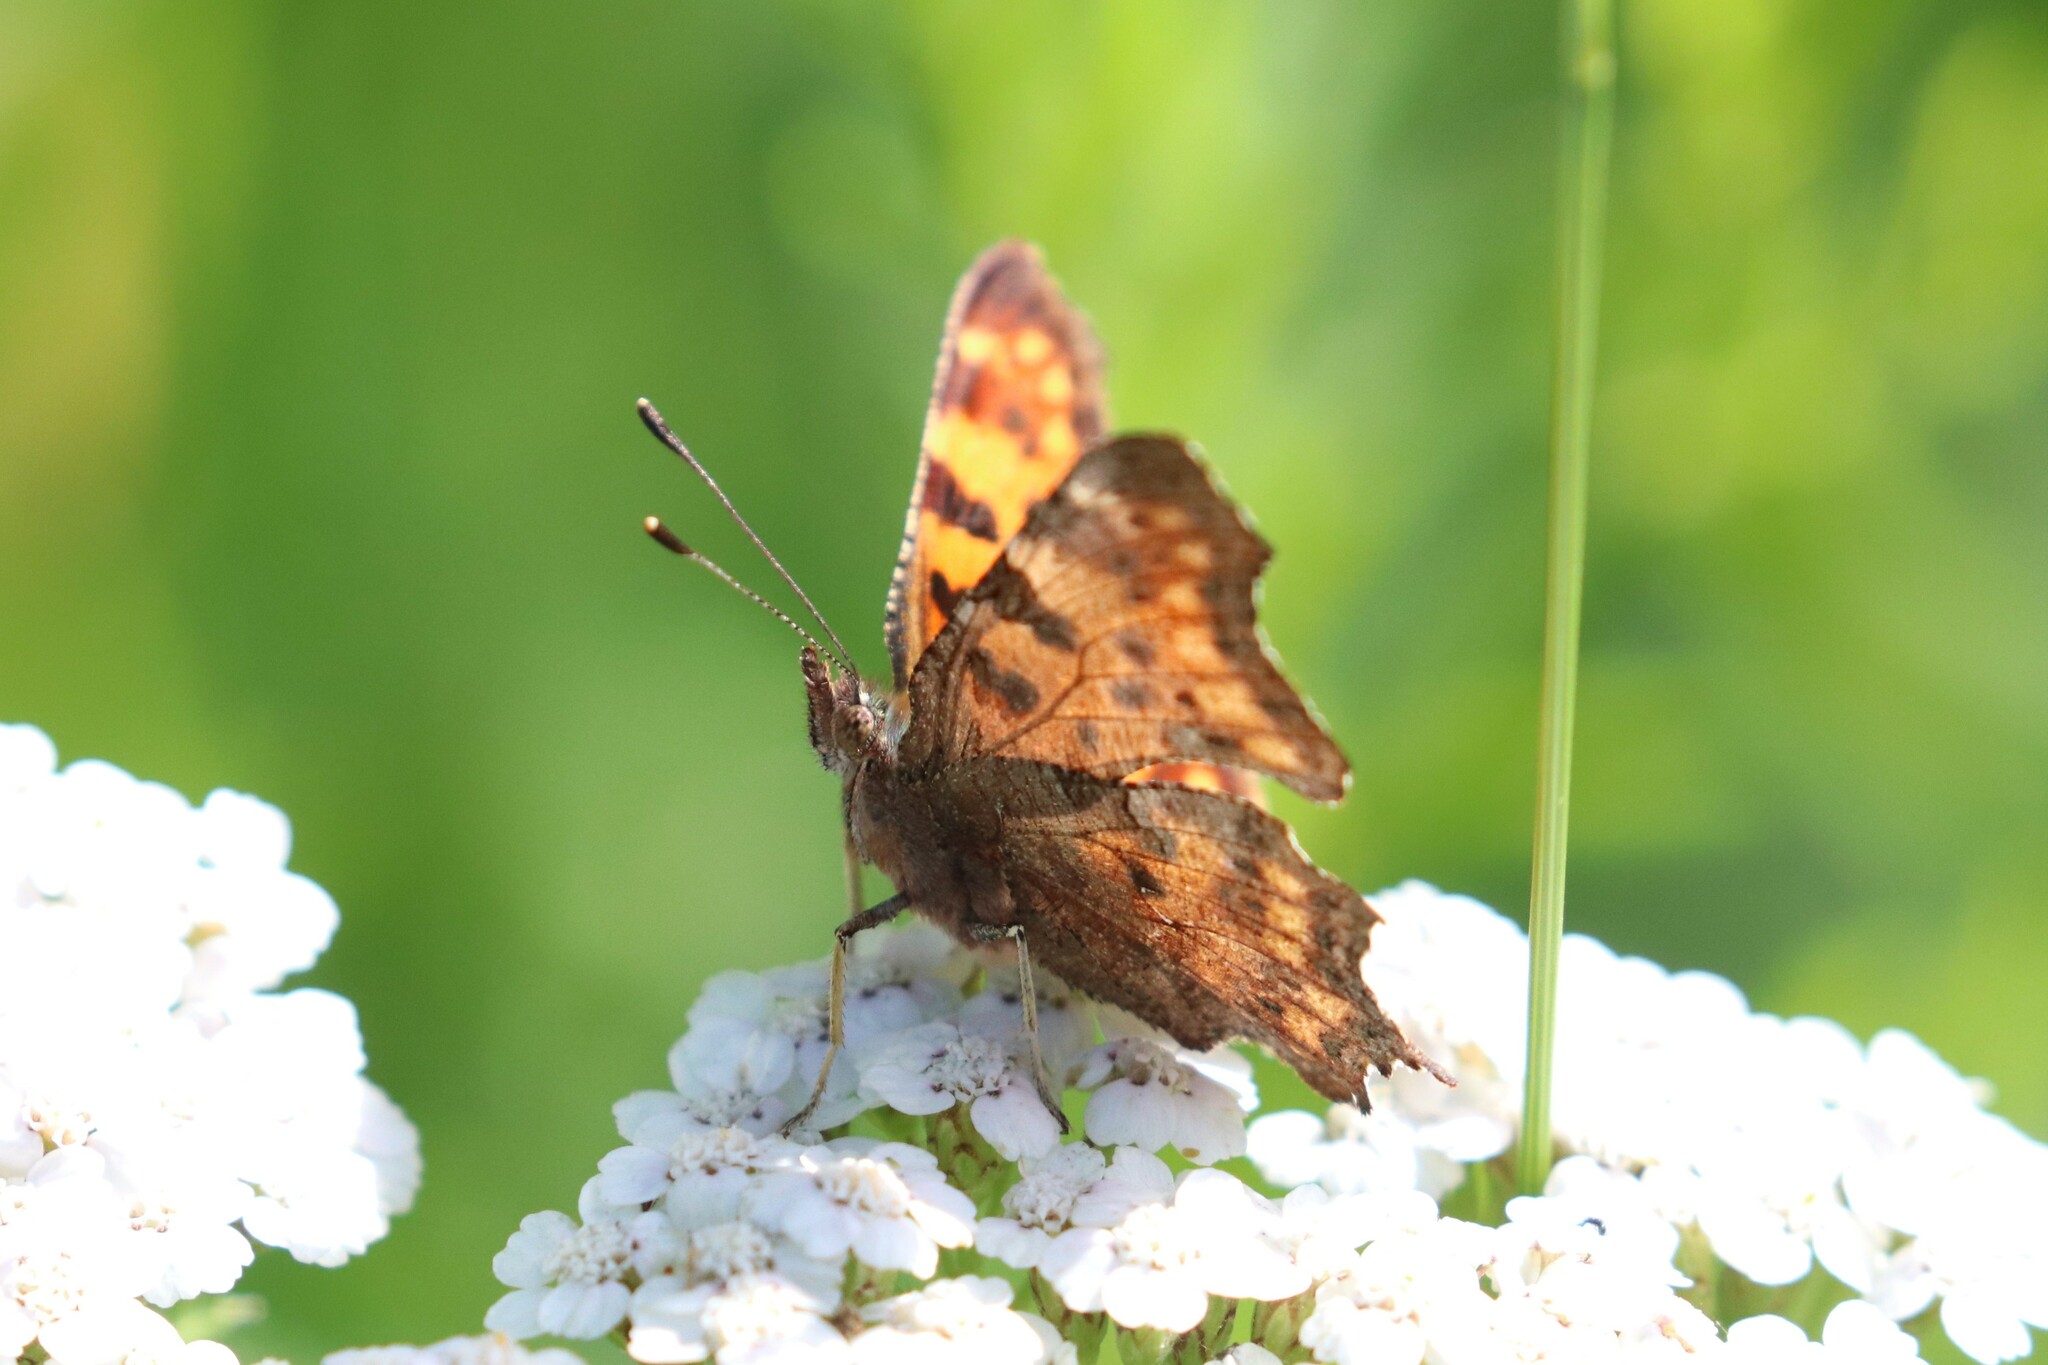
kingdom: Animalia
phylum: Arthropoda
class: Insecta
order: Lepidoptera
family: Nymphalidae
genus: Polygonia
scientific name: Polygonia c-album
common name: Comma
